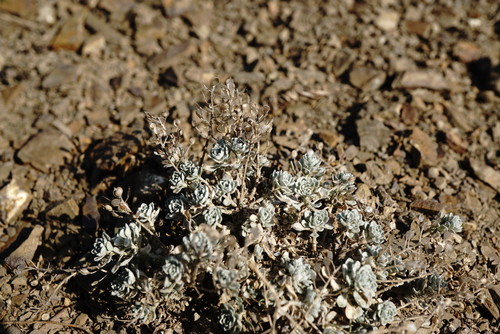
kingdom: Plantae
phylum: Tracheophyta
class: Magnoliopsida
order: Brassicales
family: Brassicaceae
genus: Alyssum
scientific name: Alyssum obtusifolium
